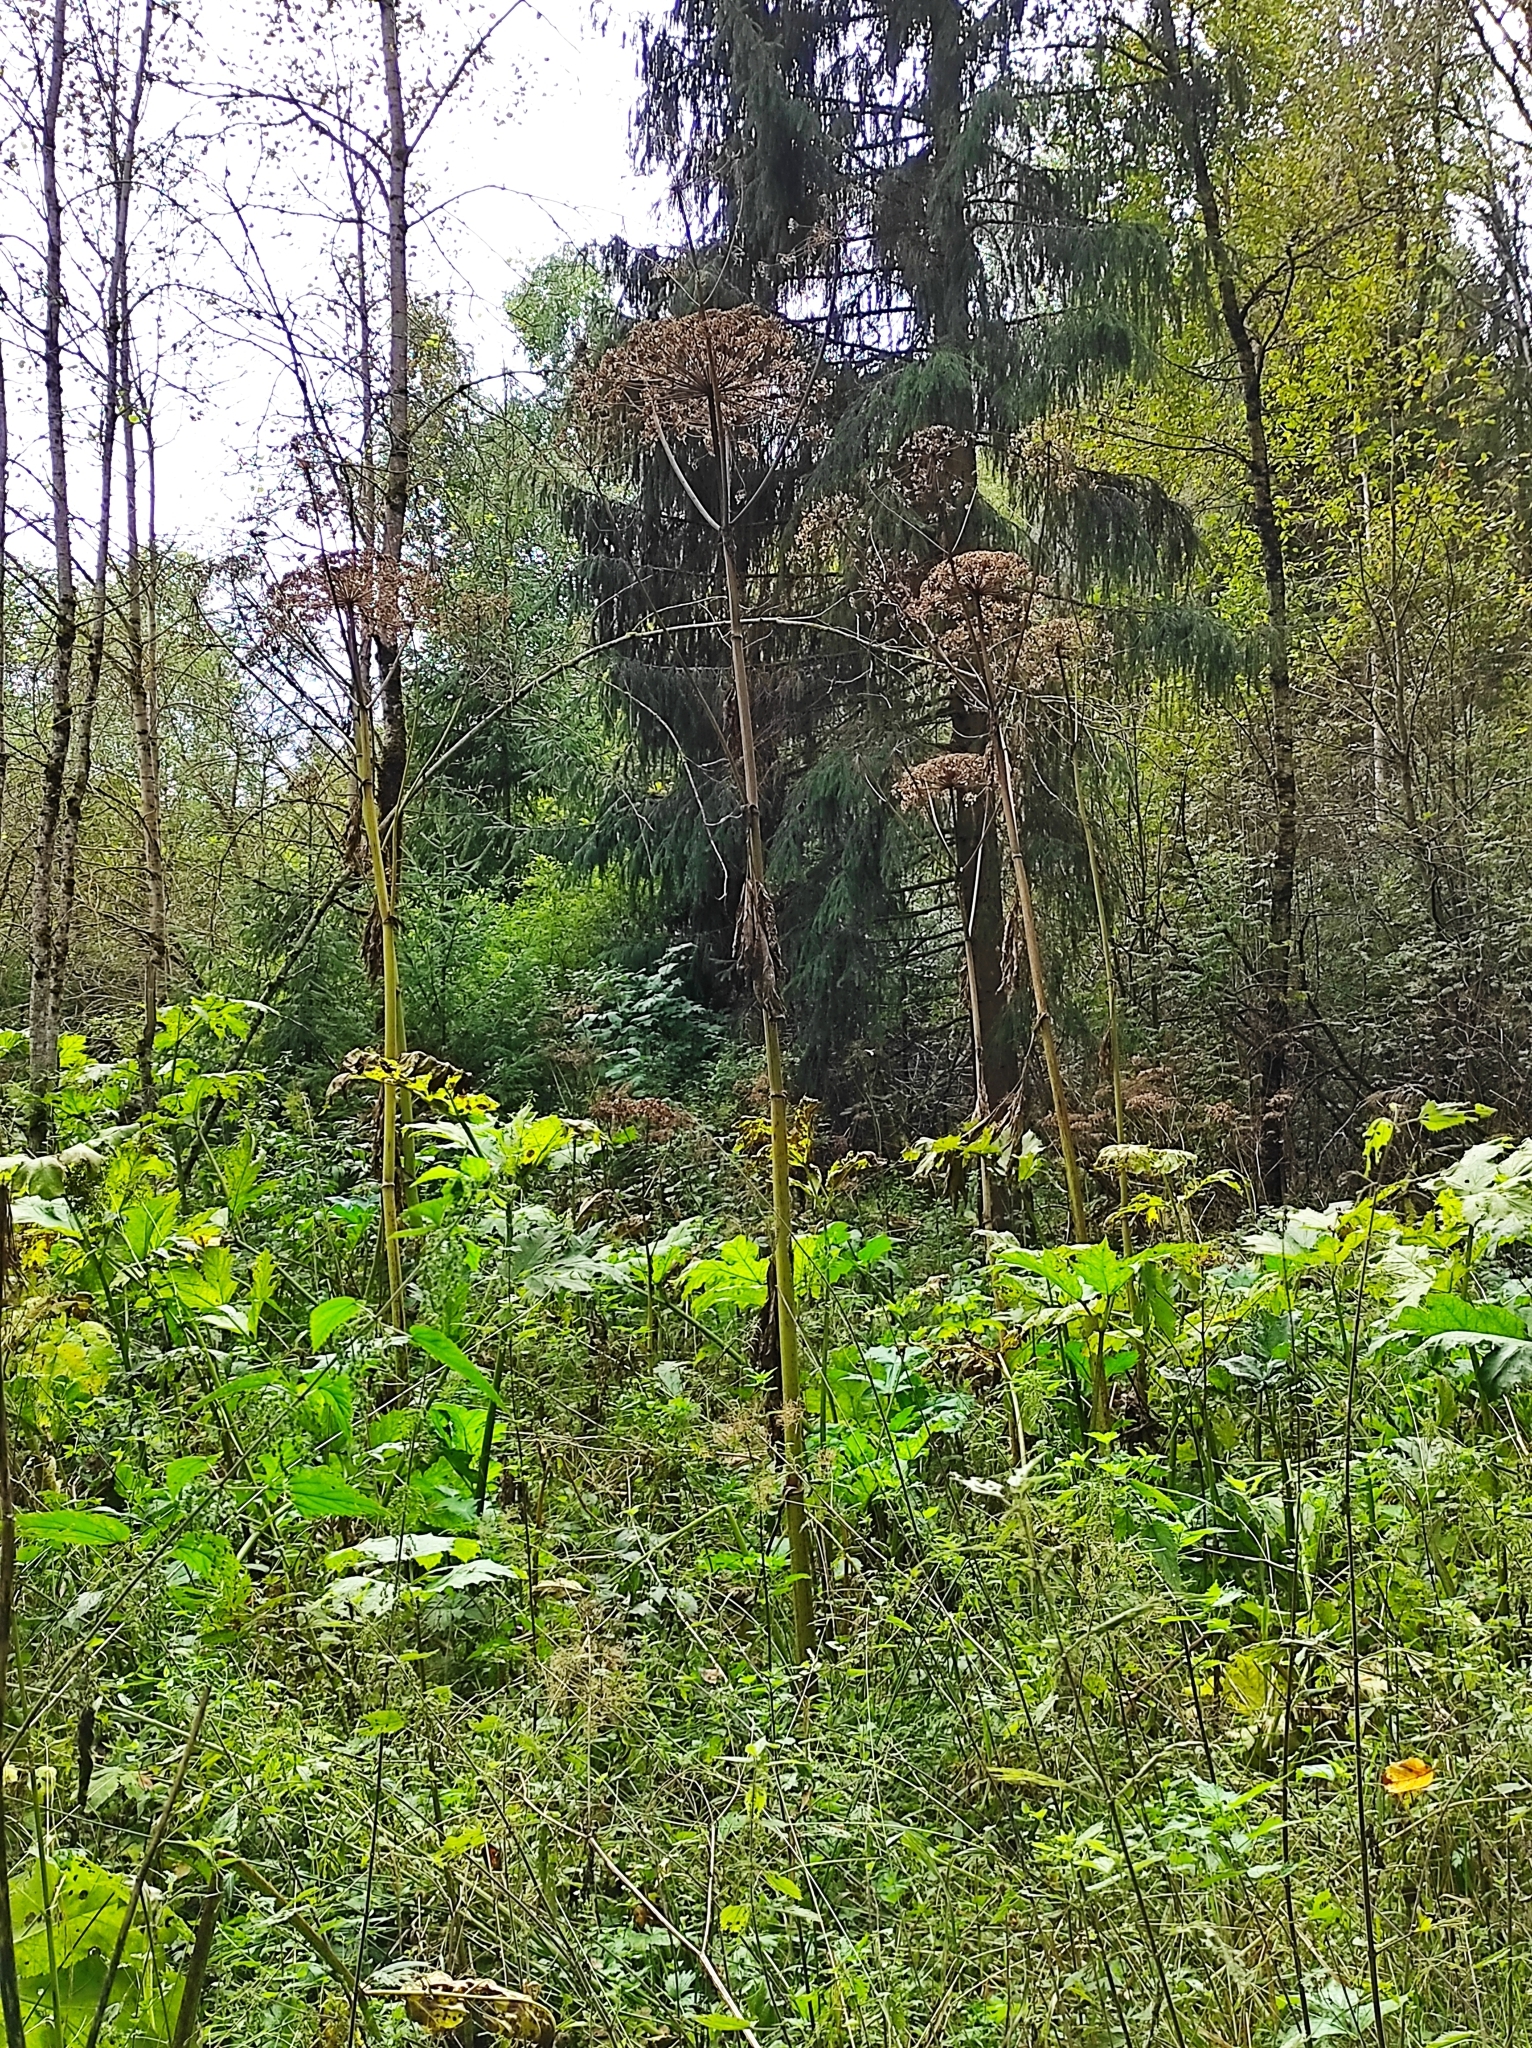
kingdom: Plantae
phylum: Tracheophyta
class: Magnoliopsida
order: Apiales
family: Apiaceae
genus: Heracleum
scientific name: Heracleum sosnowskyi
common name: Sosnowsky's hogweed
